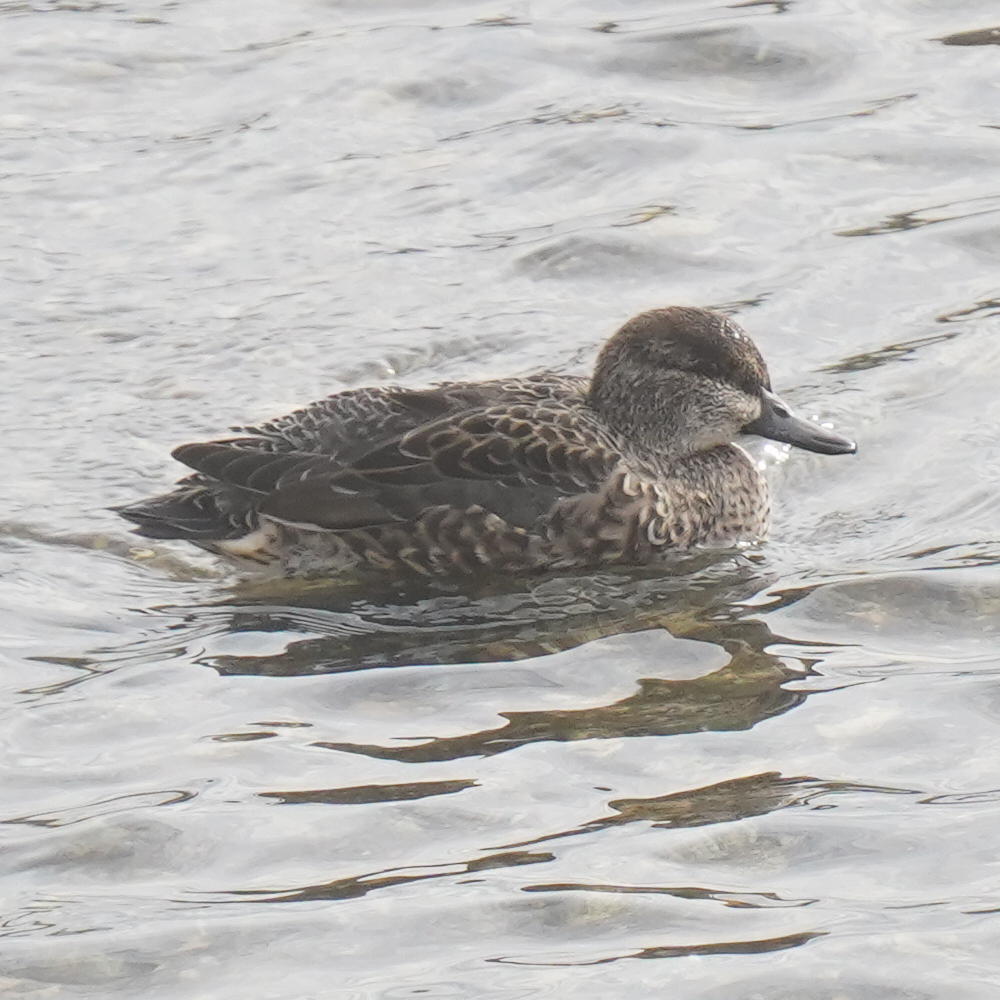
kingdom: Animalia
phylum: Chordata
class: Aves
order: Anseriformes
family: Anatidae
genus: Anas
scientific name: Anas crecca
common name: Eurasian teal
